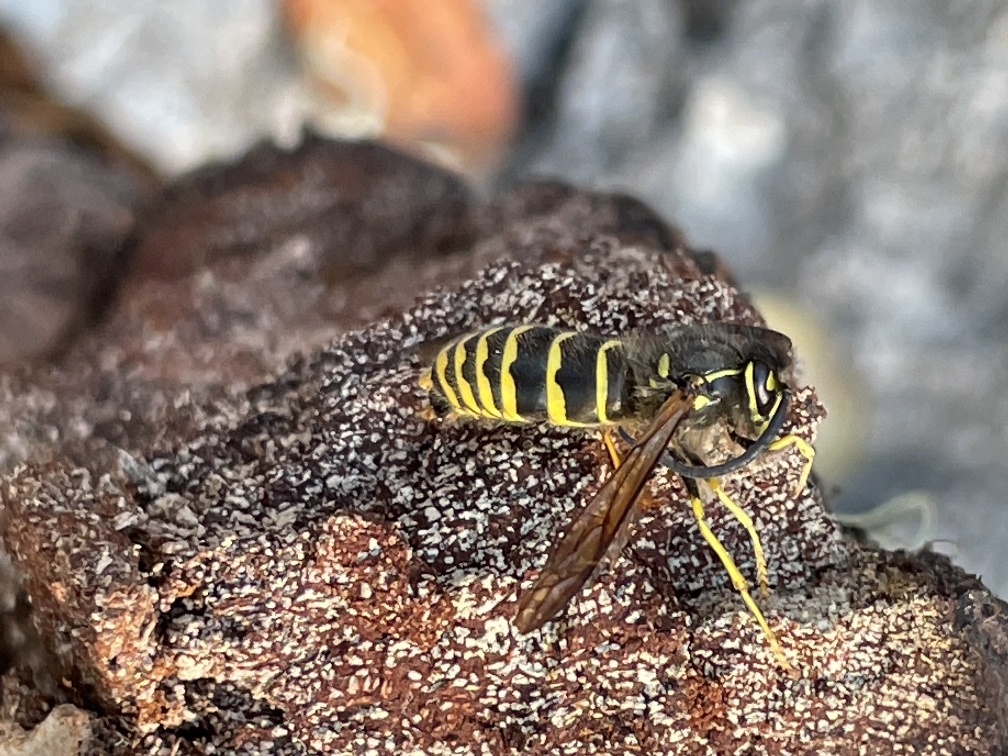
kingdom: Animalia
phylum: Arthropoda
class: Insecta
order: Hymenoptera
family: Vespidae
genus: Vespula
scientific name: Vespula alascensis
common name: Alaska yellowjacket
